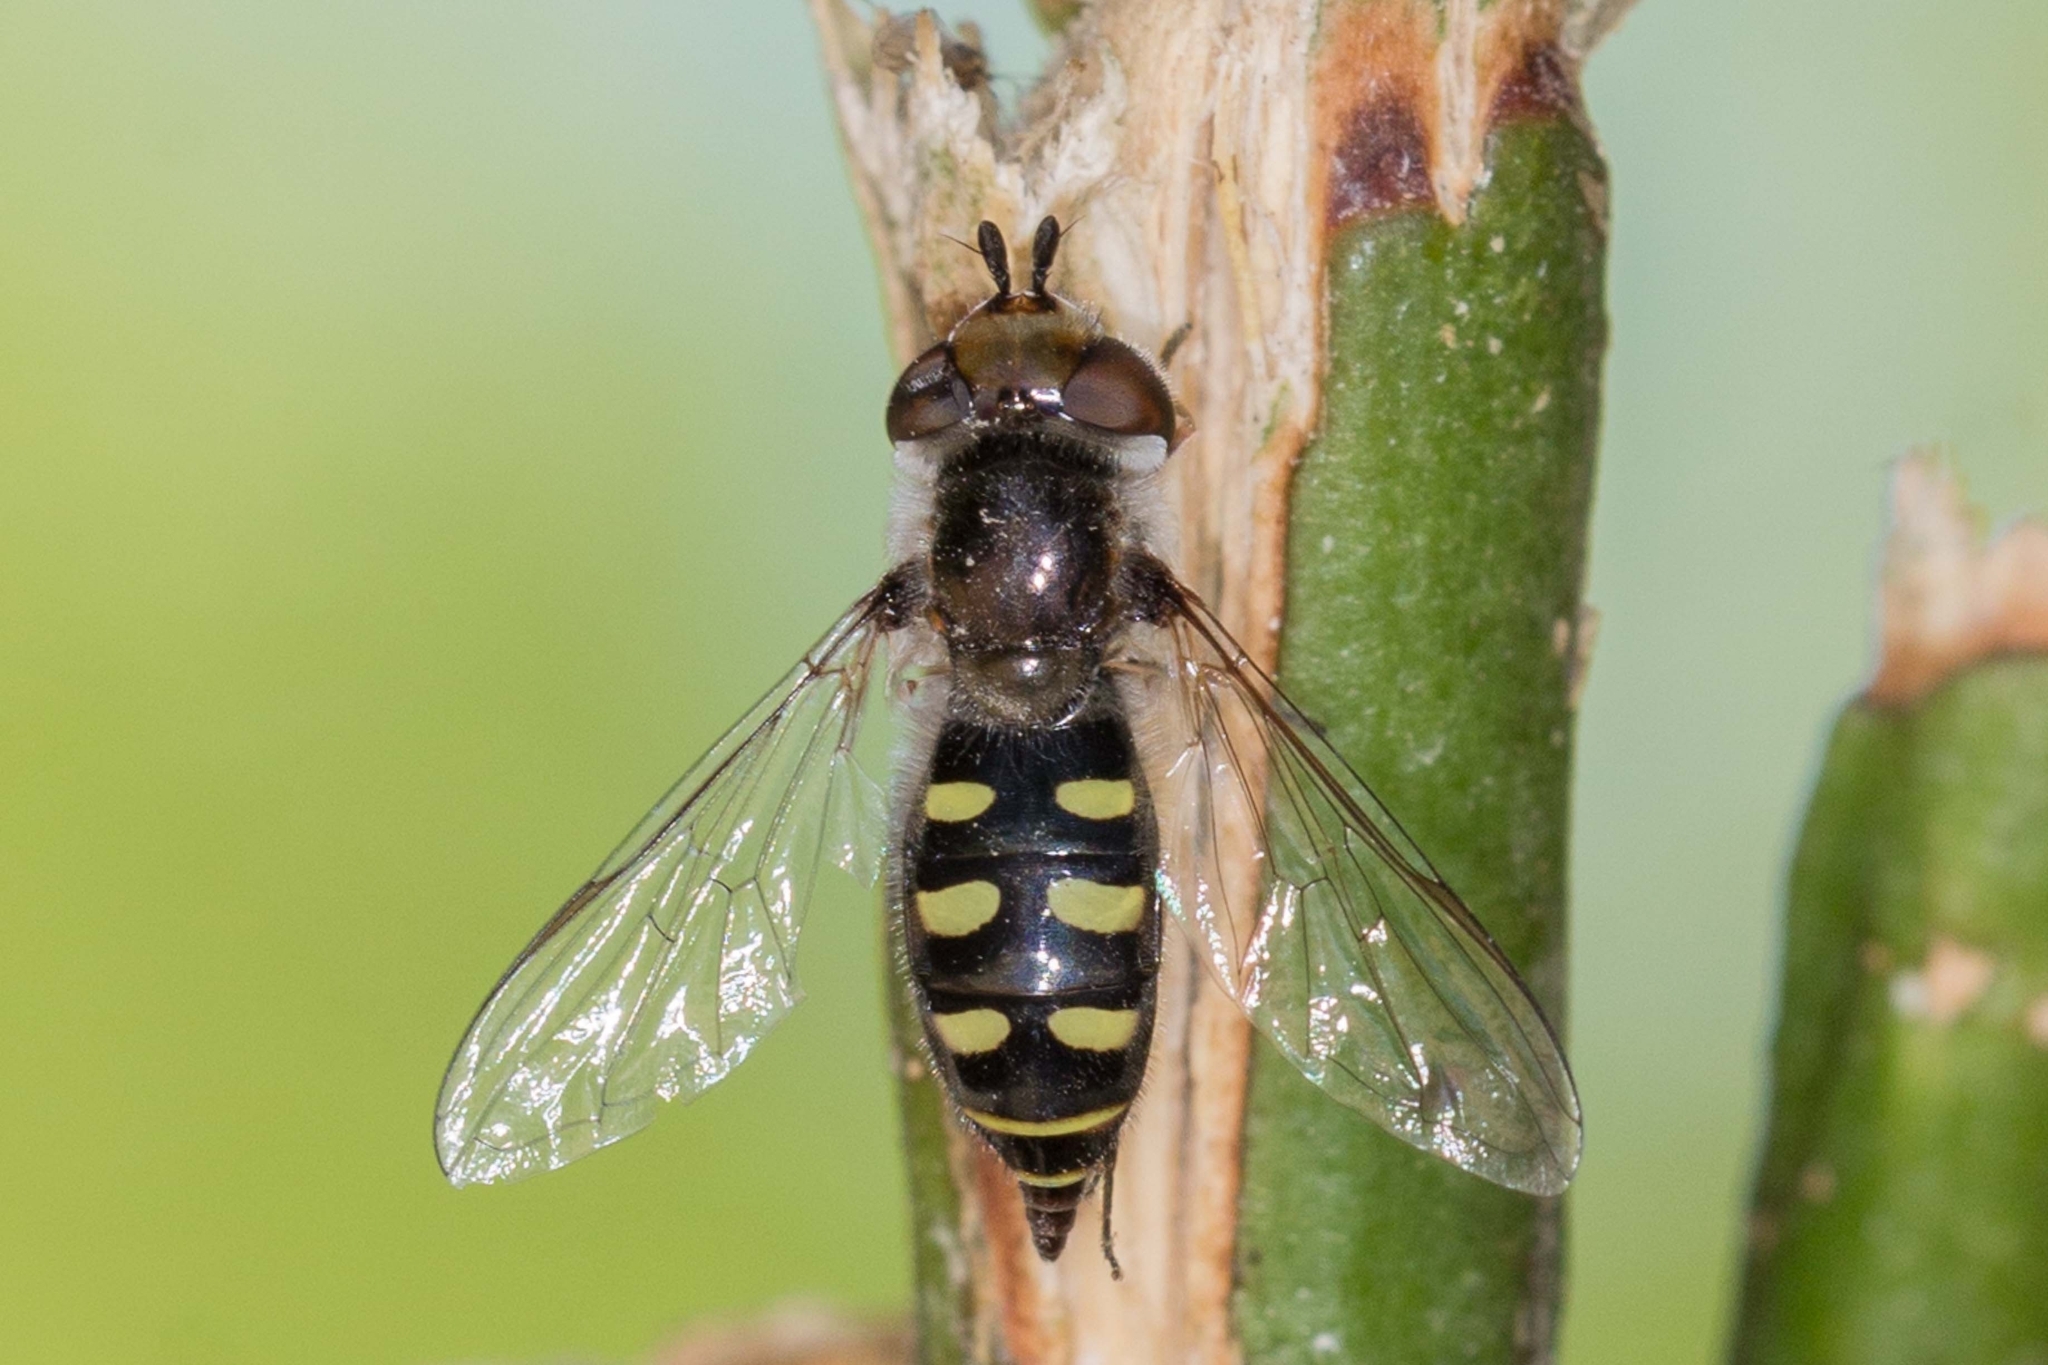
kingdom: Animalia
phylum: Arthropoda
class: Insecta
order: Diptera
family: Syrphidae
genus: Austroscaeva
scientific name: Austroscaeva melanostoma
